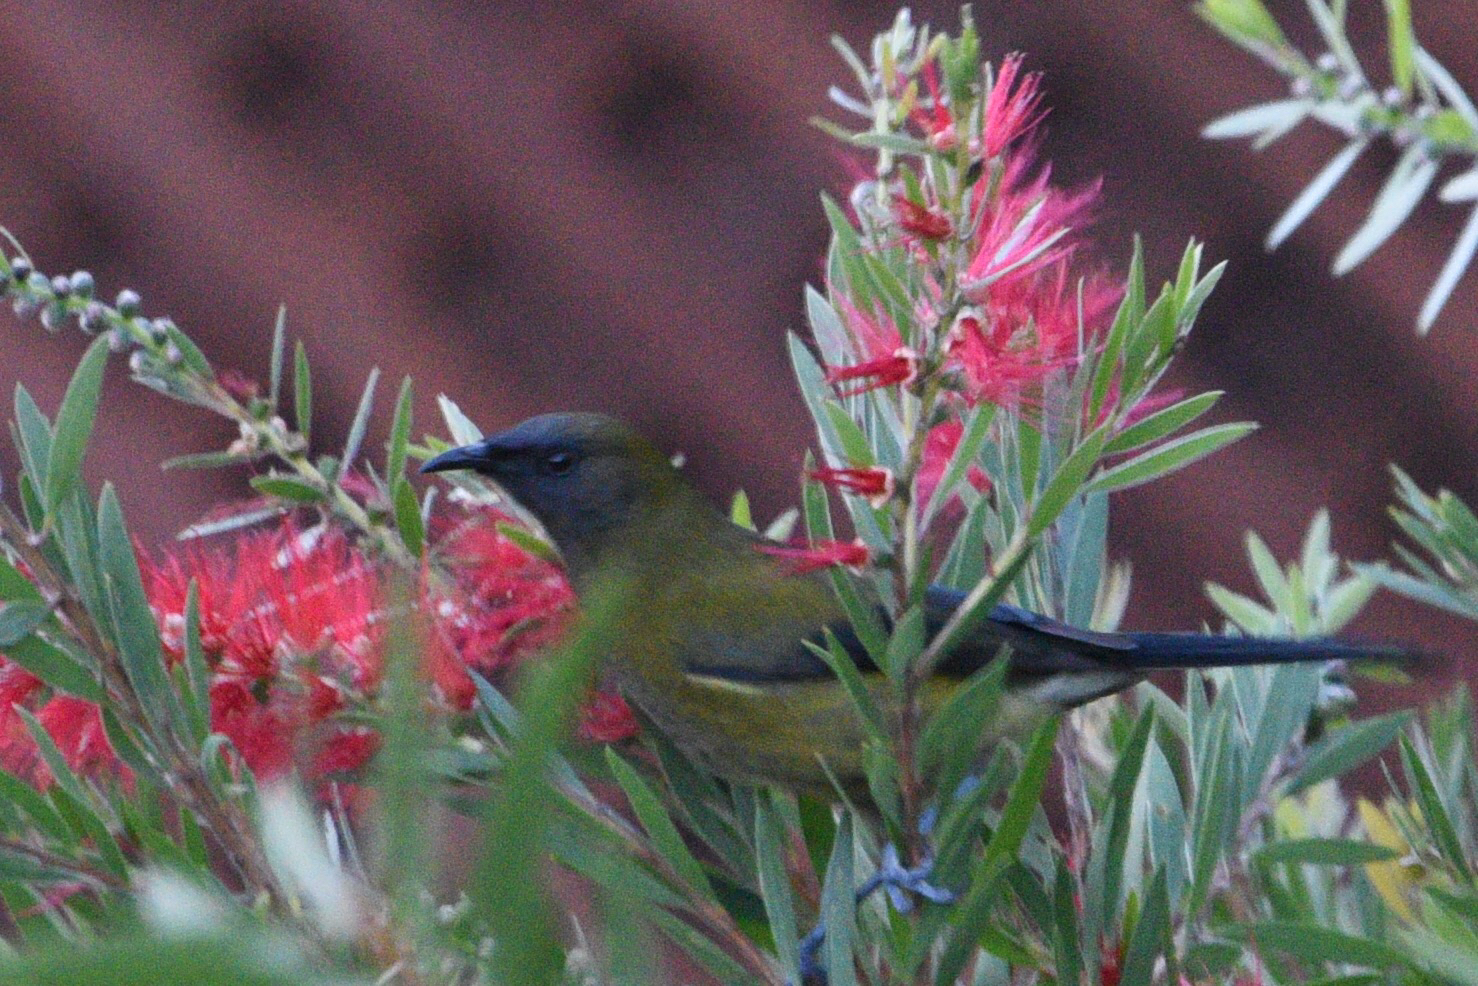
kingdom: Animalia
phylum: Chordata
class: Aves
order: Passeriformes
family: Meliphagidae
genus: Anthornis
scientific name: Anthornis melanura
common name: New zealand bellbird
